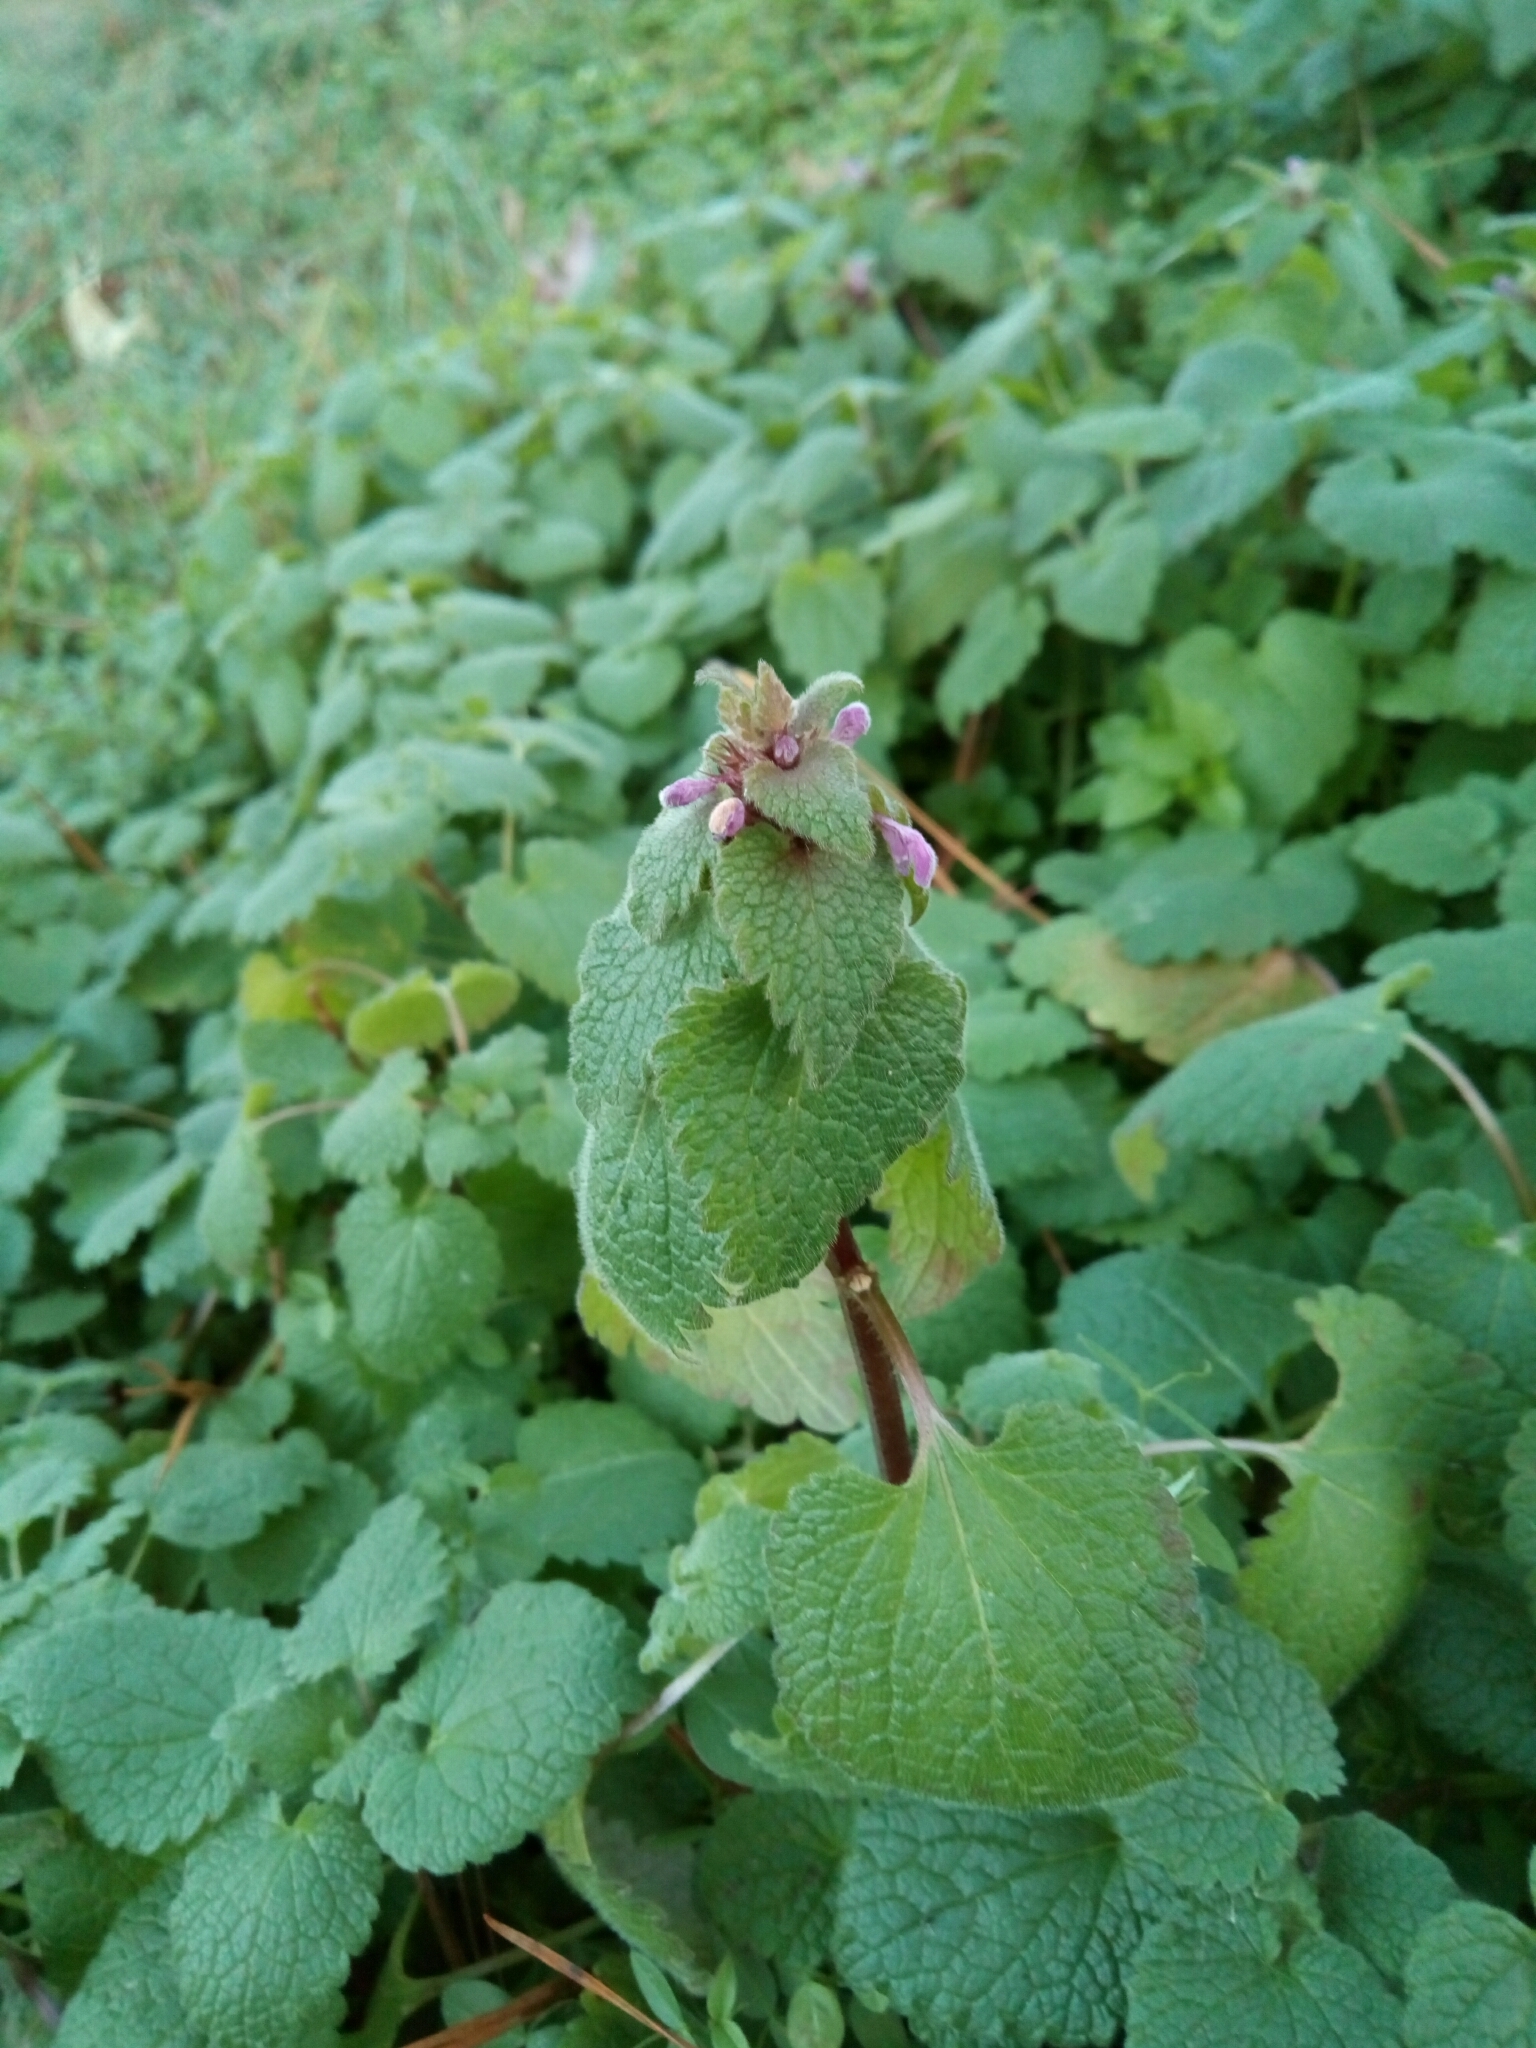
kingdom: Plantae
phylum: Tracheophyta
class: Magnoliopsida
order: Lamiales
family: Lamiaceae
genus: Lamium
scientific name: Lamium purpureum
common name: Red dead-nettle
